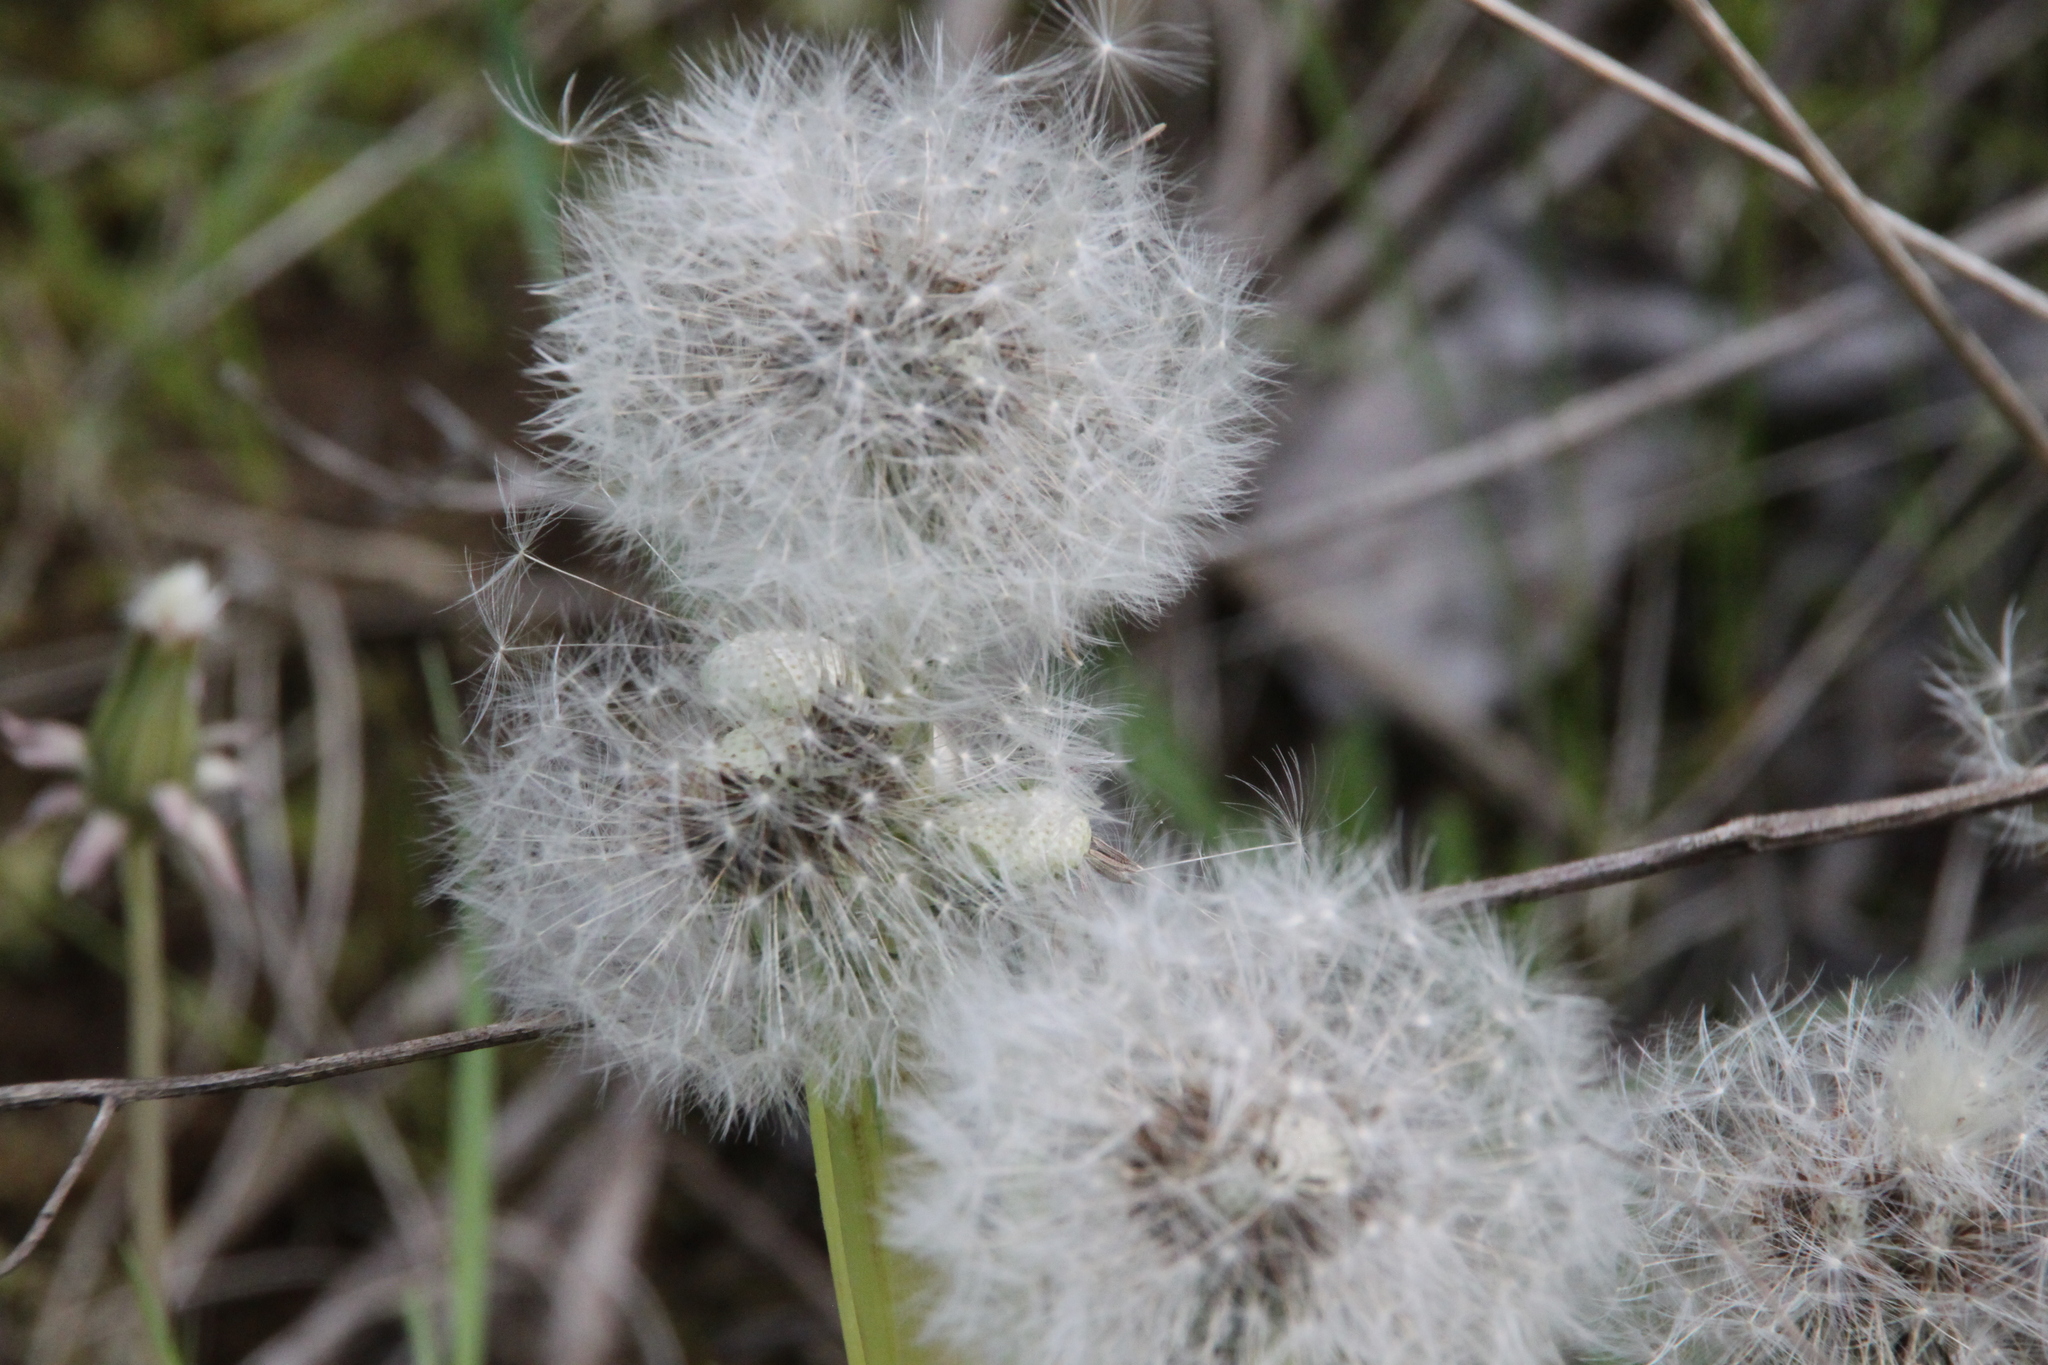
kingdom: Plantae
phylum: Tracheophyta
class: Magnoliopsida
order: Asterales
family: Asteraceae
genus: Taraxacum
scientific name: Taraxacum officinale
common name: Common dandelion
